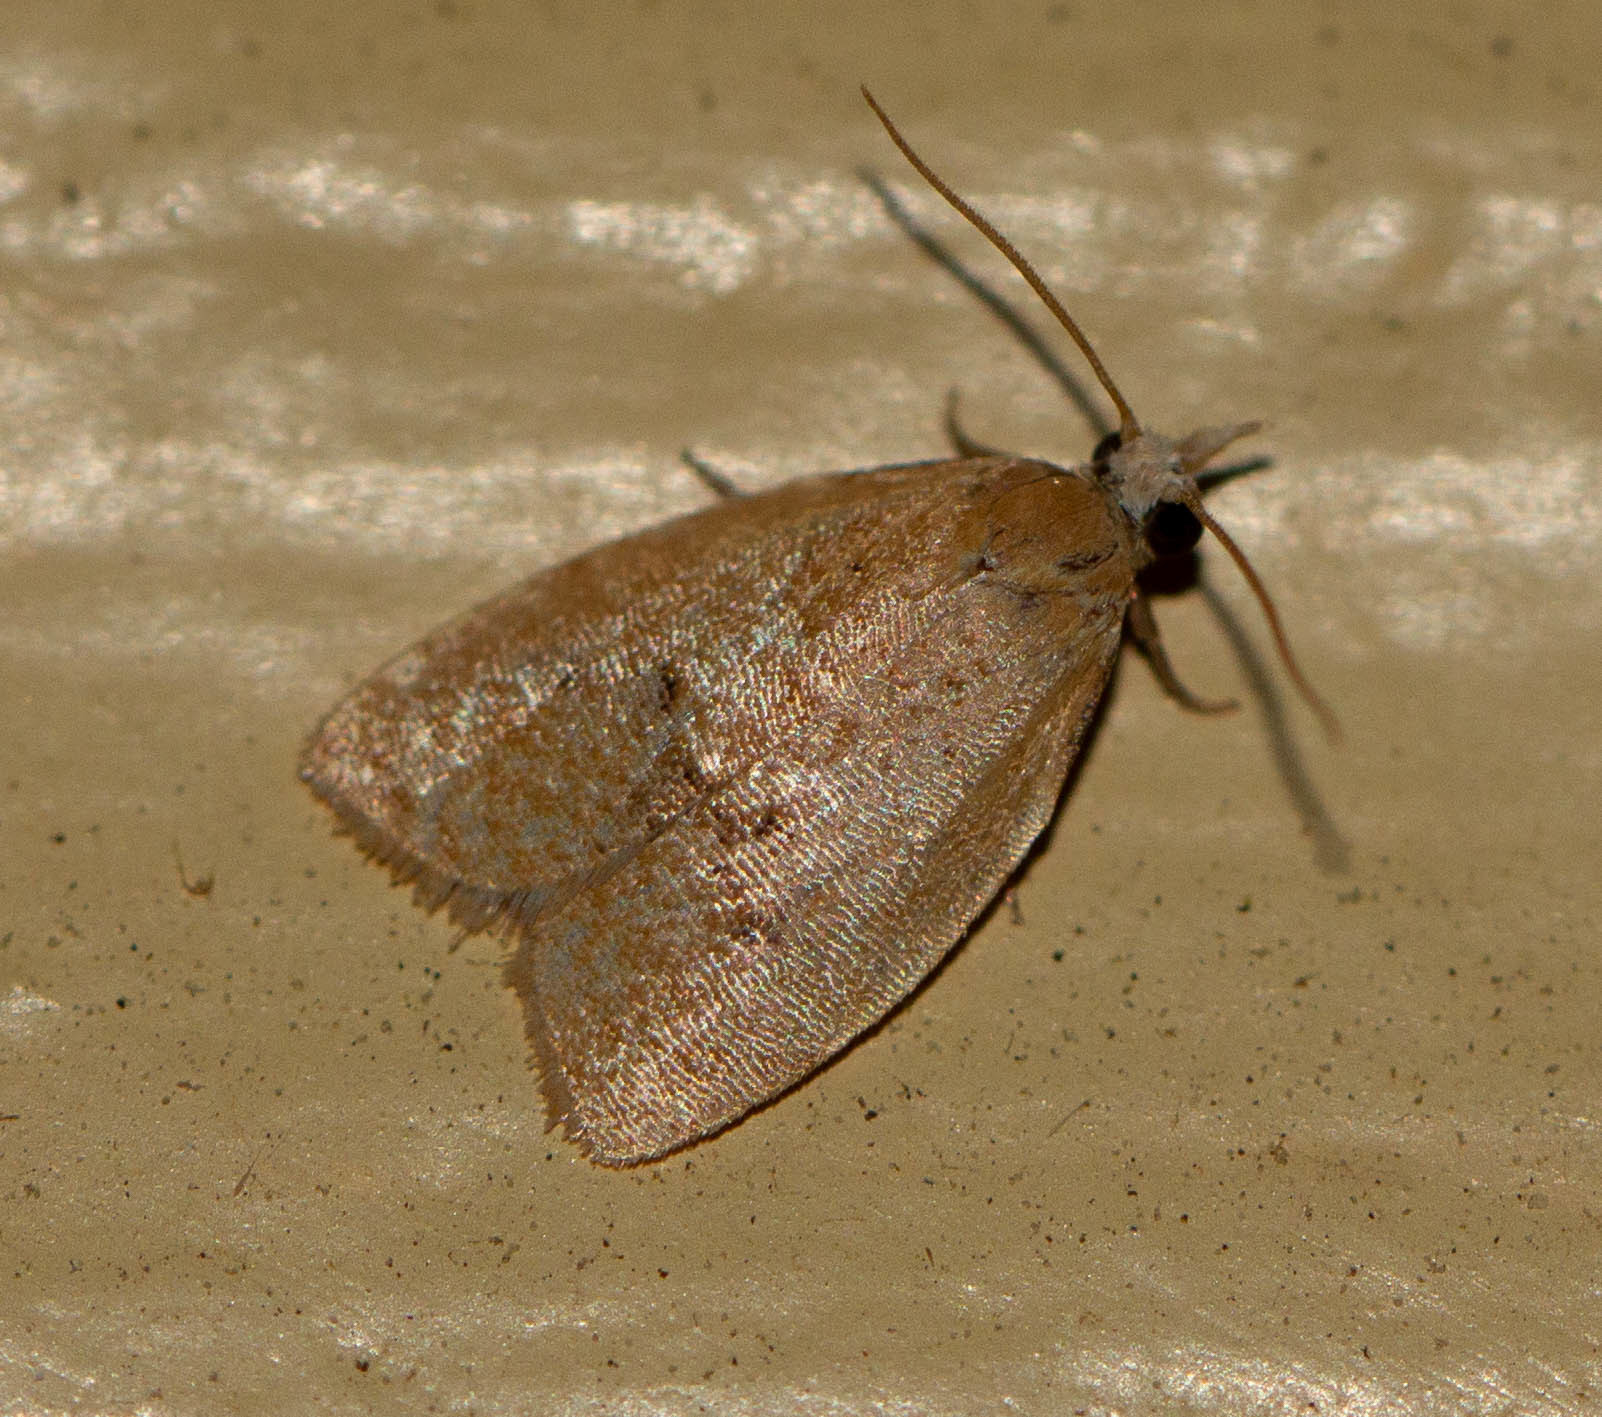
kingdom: Animalia
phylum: Arthropoda
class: Insecta
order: Lepidoptera
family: Tortricidae
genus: Sparganothoides
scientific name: Sparganothoides lentiginosana
